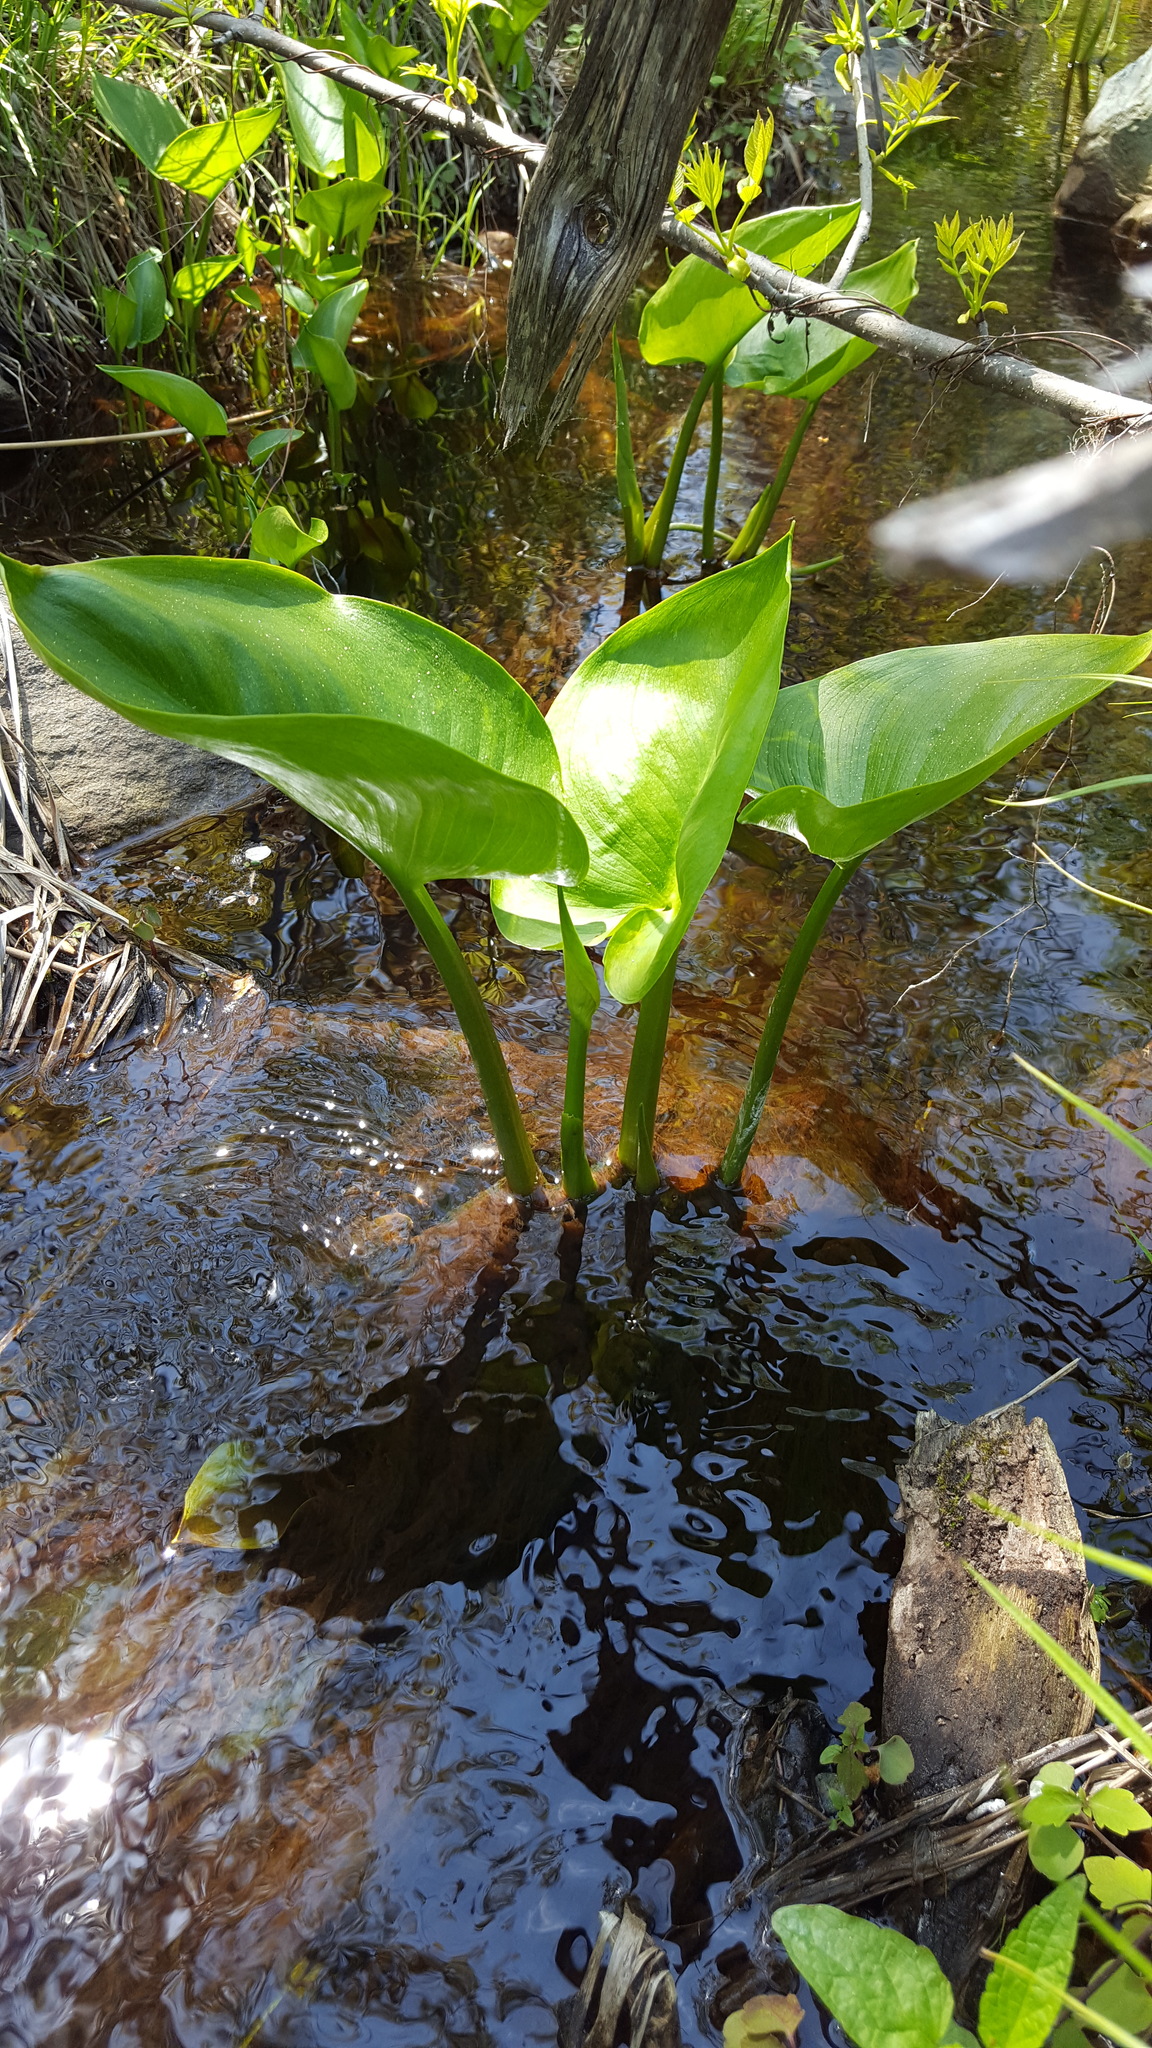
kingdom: Plantae
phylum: Tracheophyta
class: Liliopsida
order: Alismatales
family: Araceae
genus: Calla
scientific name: Calla palustris
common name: Bog arum
